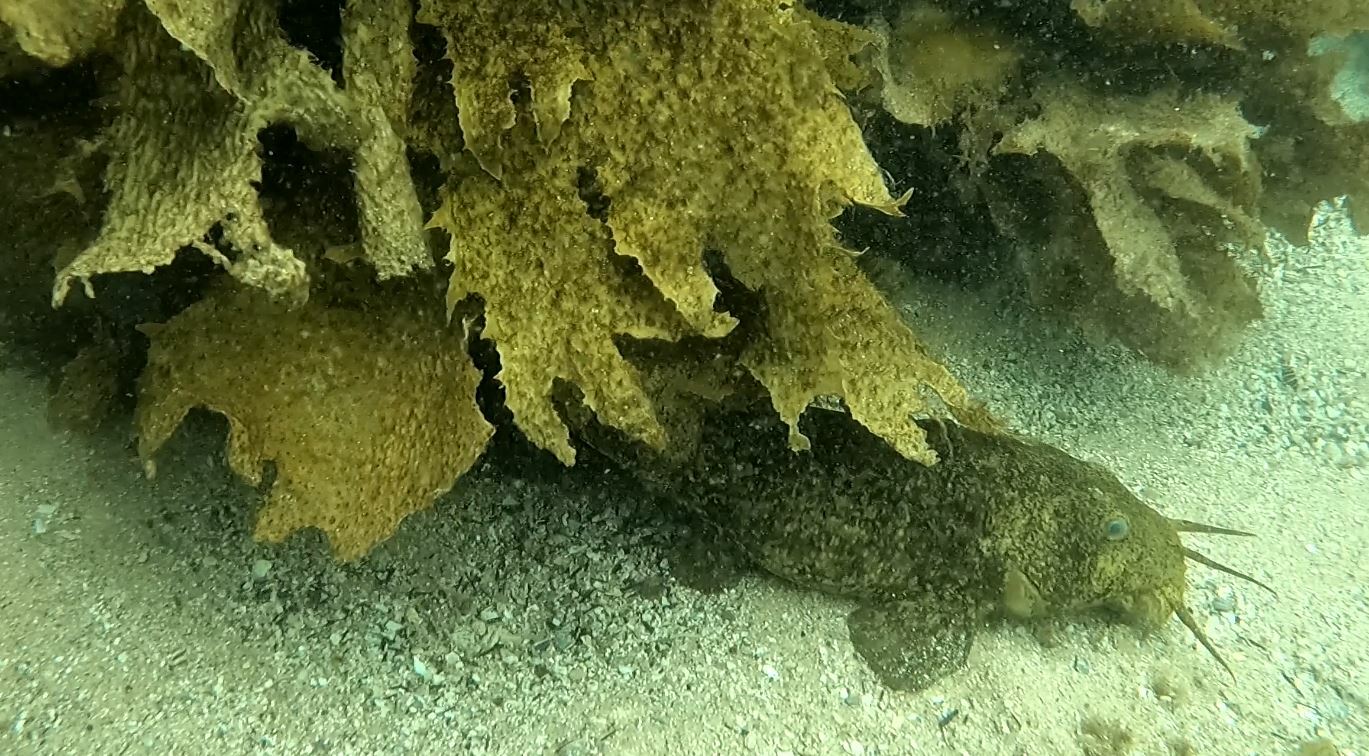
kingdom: Animalia
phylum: Chordata
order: Siluriformes
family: Plotosidae
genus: Cnidoglanis
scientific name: Cnidoglanis macrocephalus
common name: Cobbler
